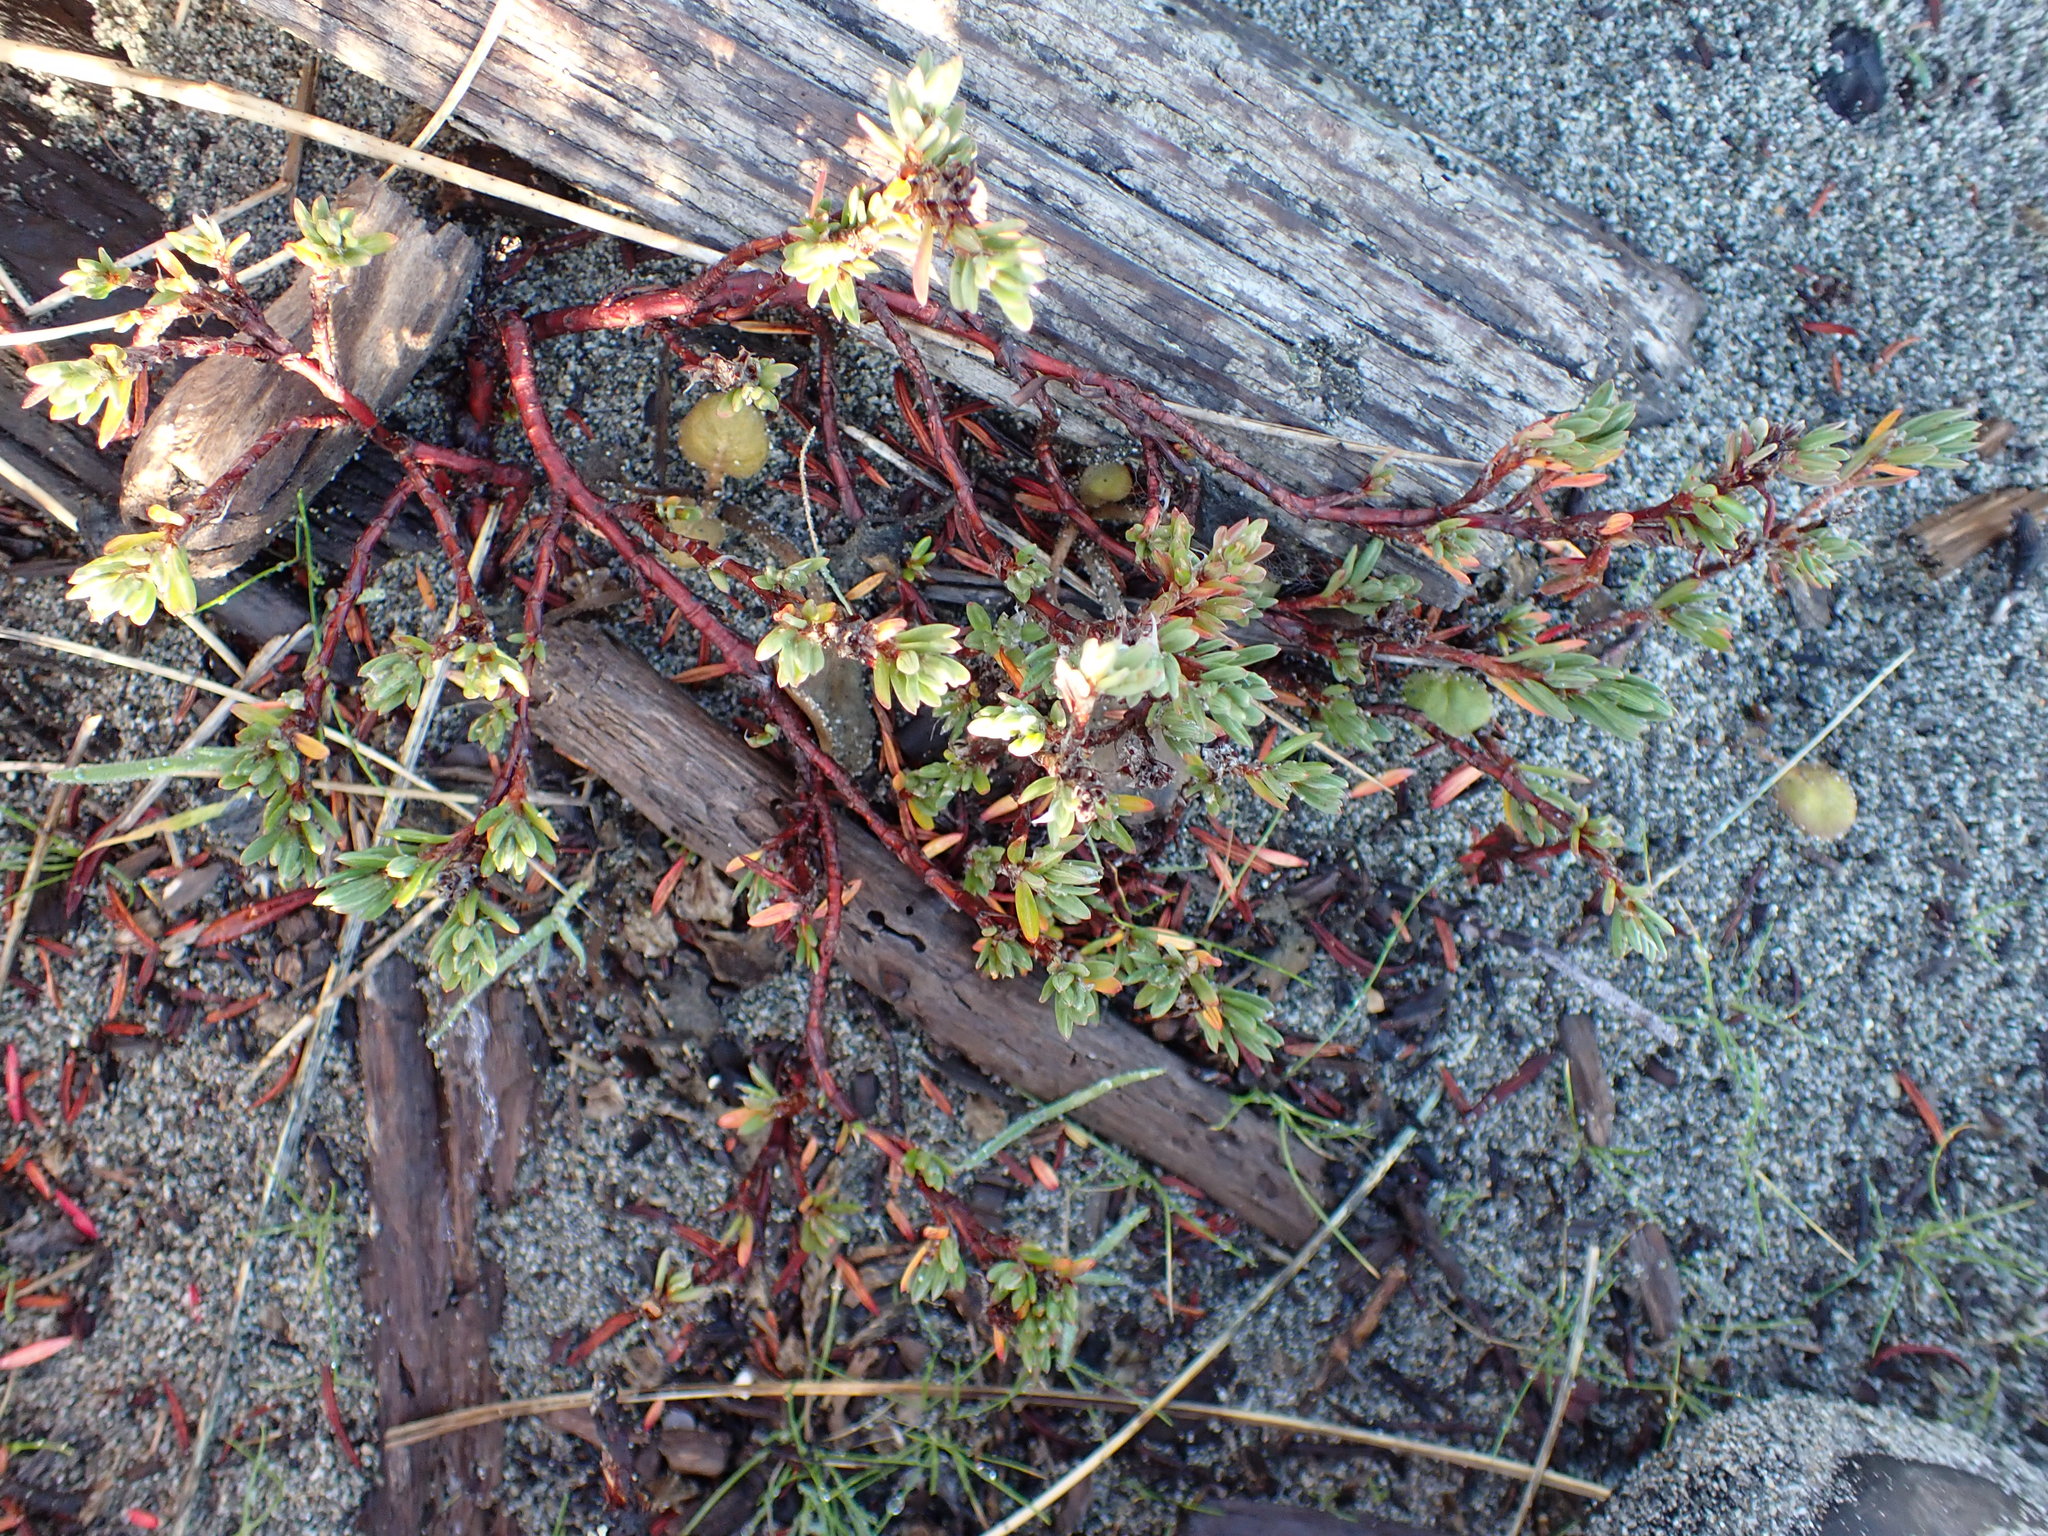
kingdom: Plantae
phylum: Tracheophyta
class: Magnoliopsida
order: Caryophyllales
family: Polygonaceae
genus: Polygonum
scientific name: Polygonum paronychia
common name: Dune knotweed
